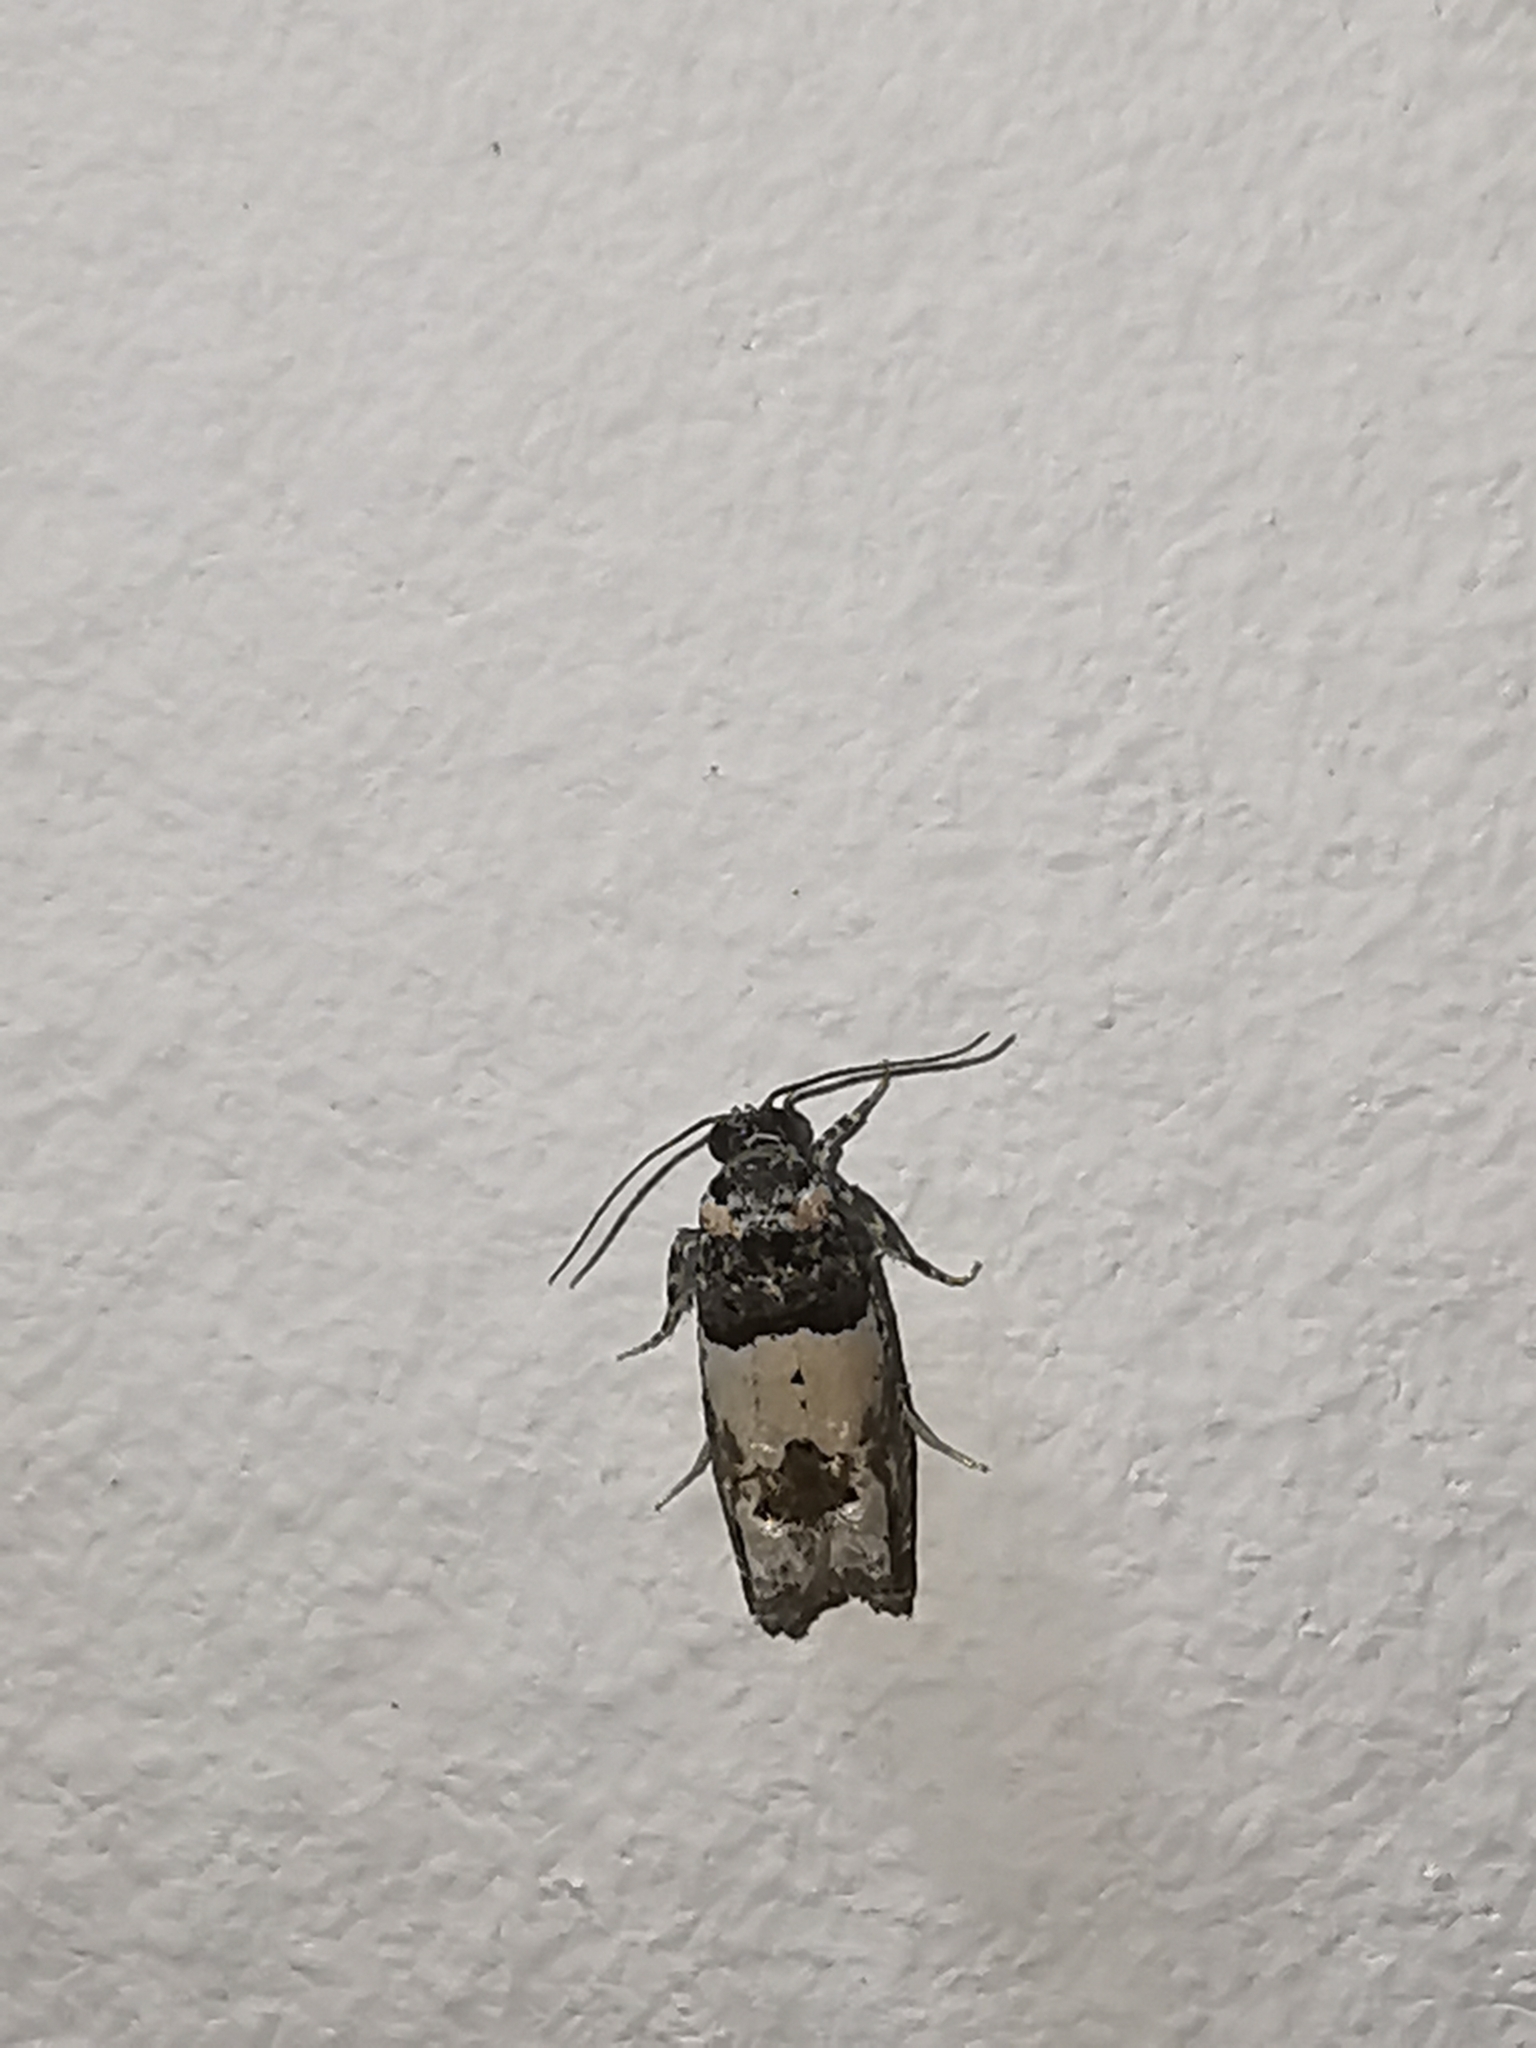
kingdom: Animalia
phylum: Arthropoda
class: Insecta
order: Lepidoptera
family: Tortricidae
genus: Epinotia
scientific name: Epinotia thapsiana
